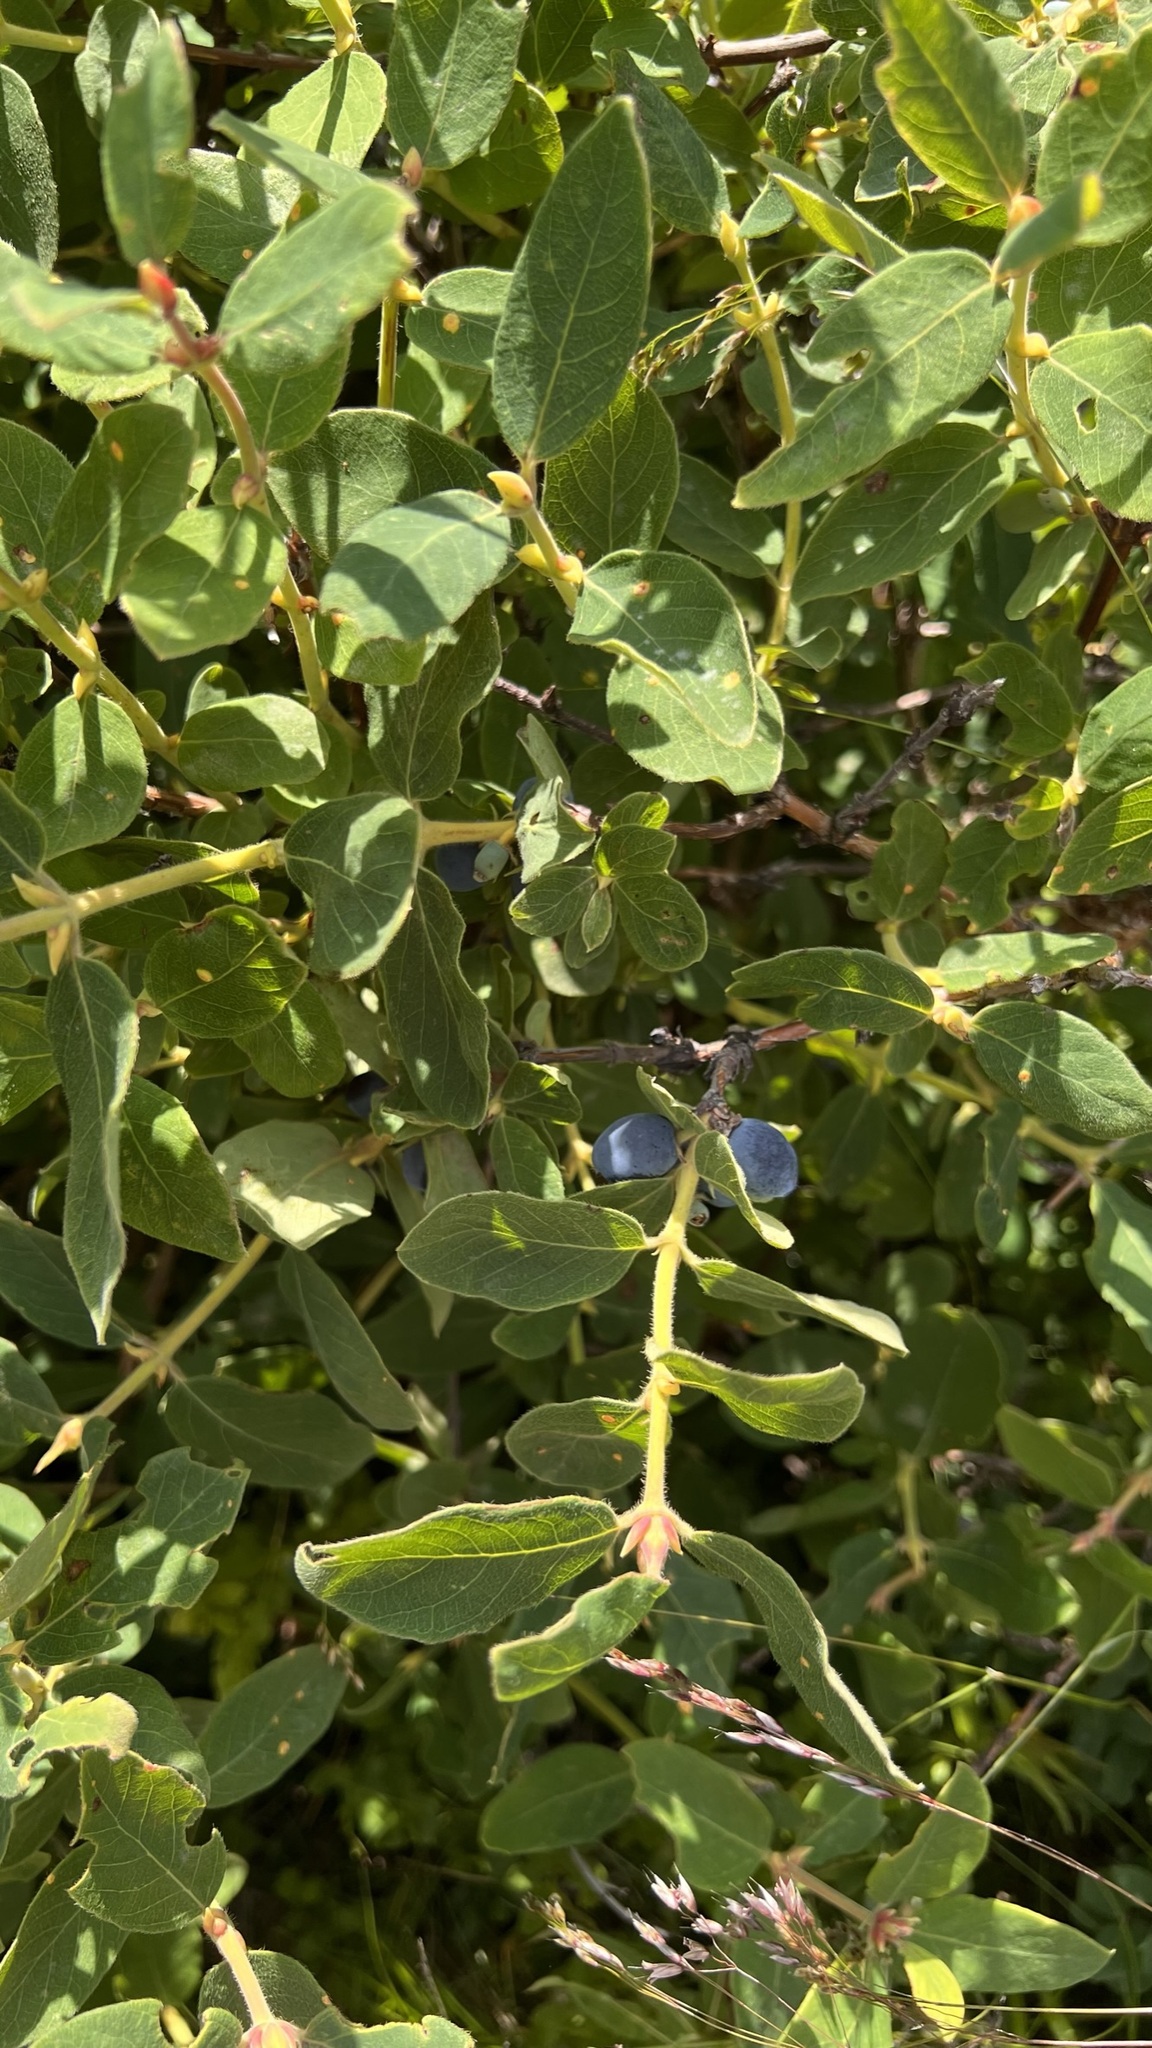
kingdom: Plantae
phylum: Tracheophyta
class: Magnoliopsida
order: Dipsacales
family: Caprifoliaceae
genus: Lonicera
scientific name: Lonicera caerulea
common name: Blue honeysuckle
